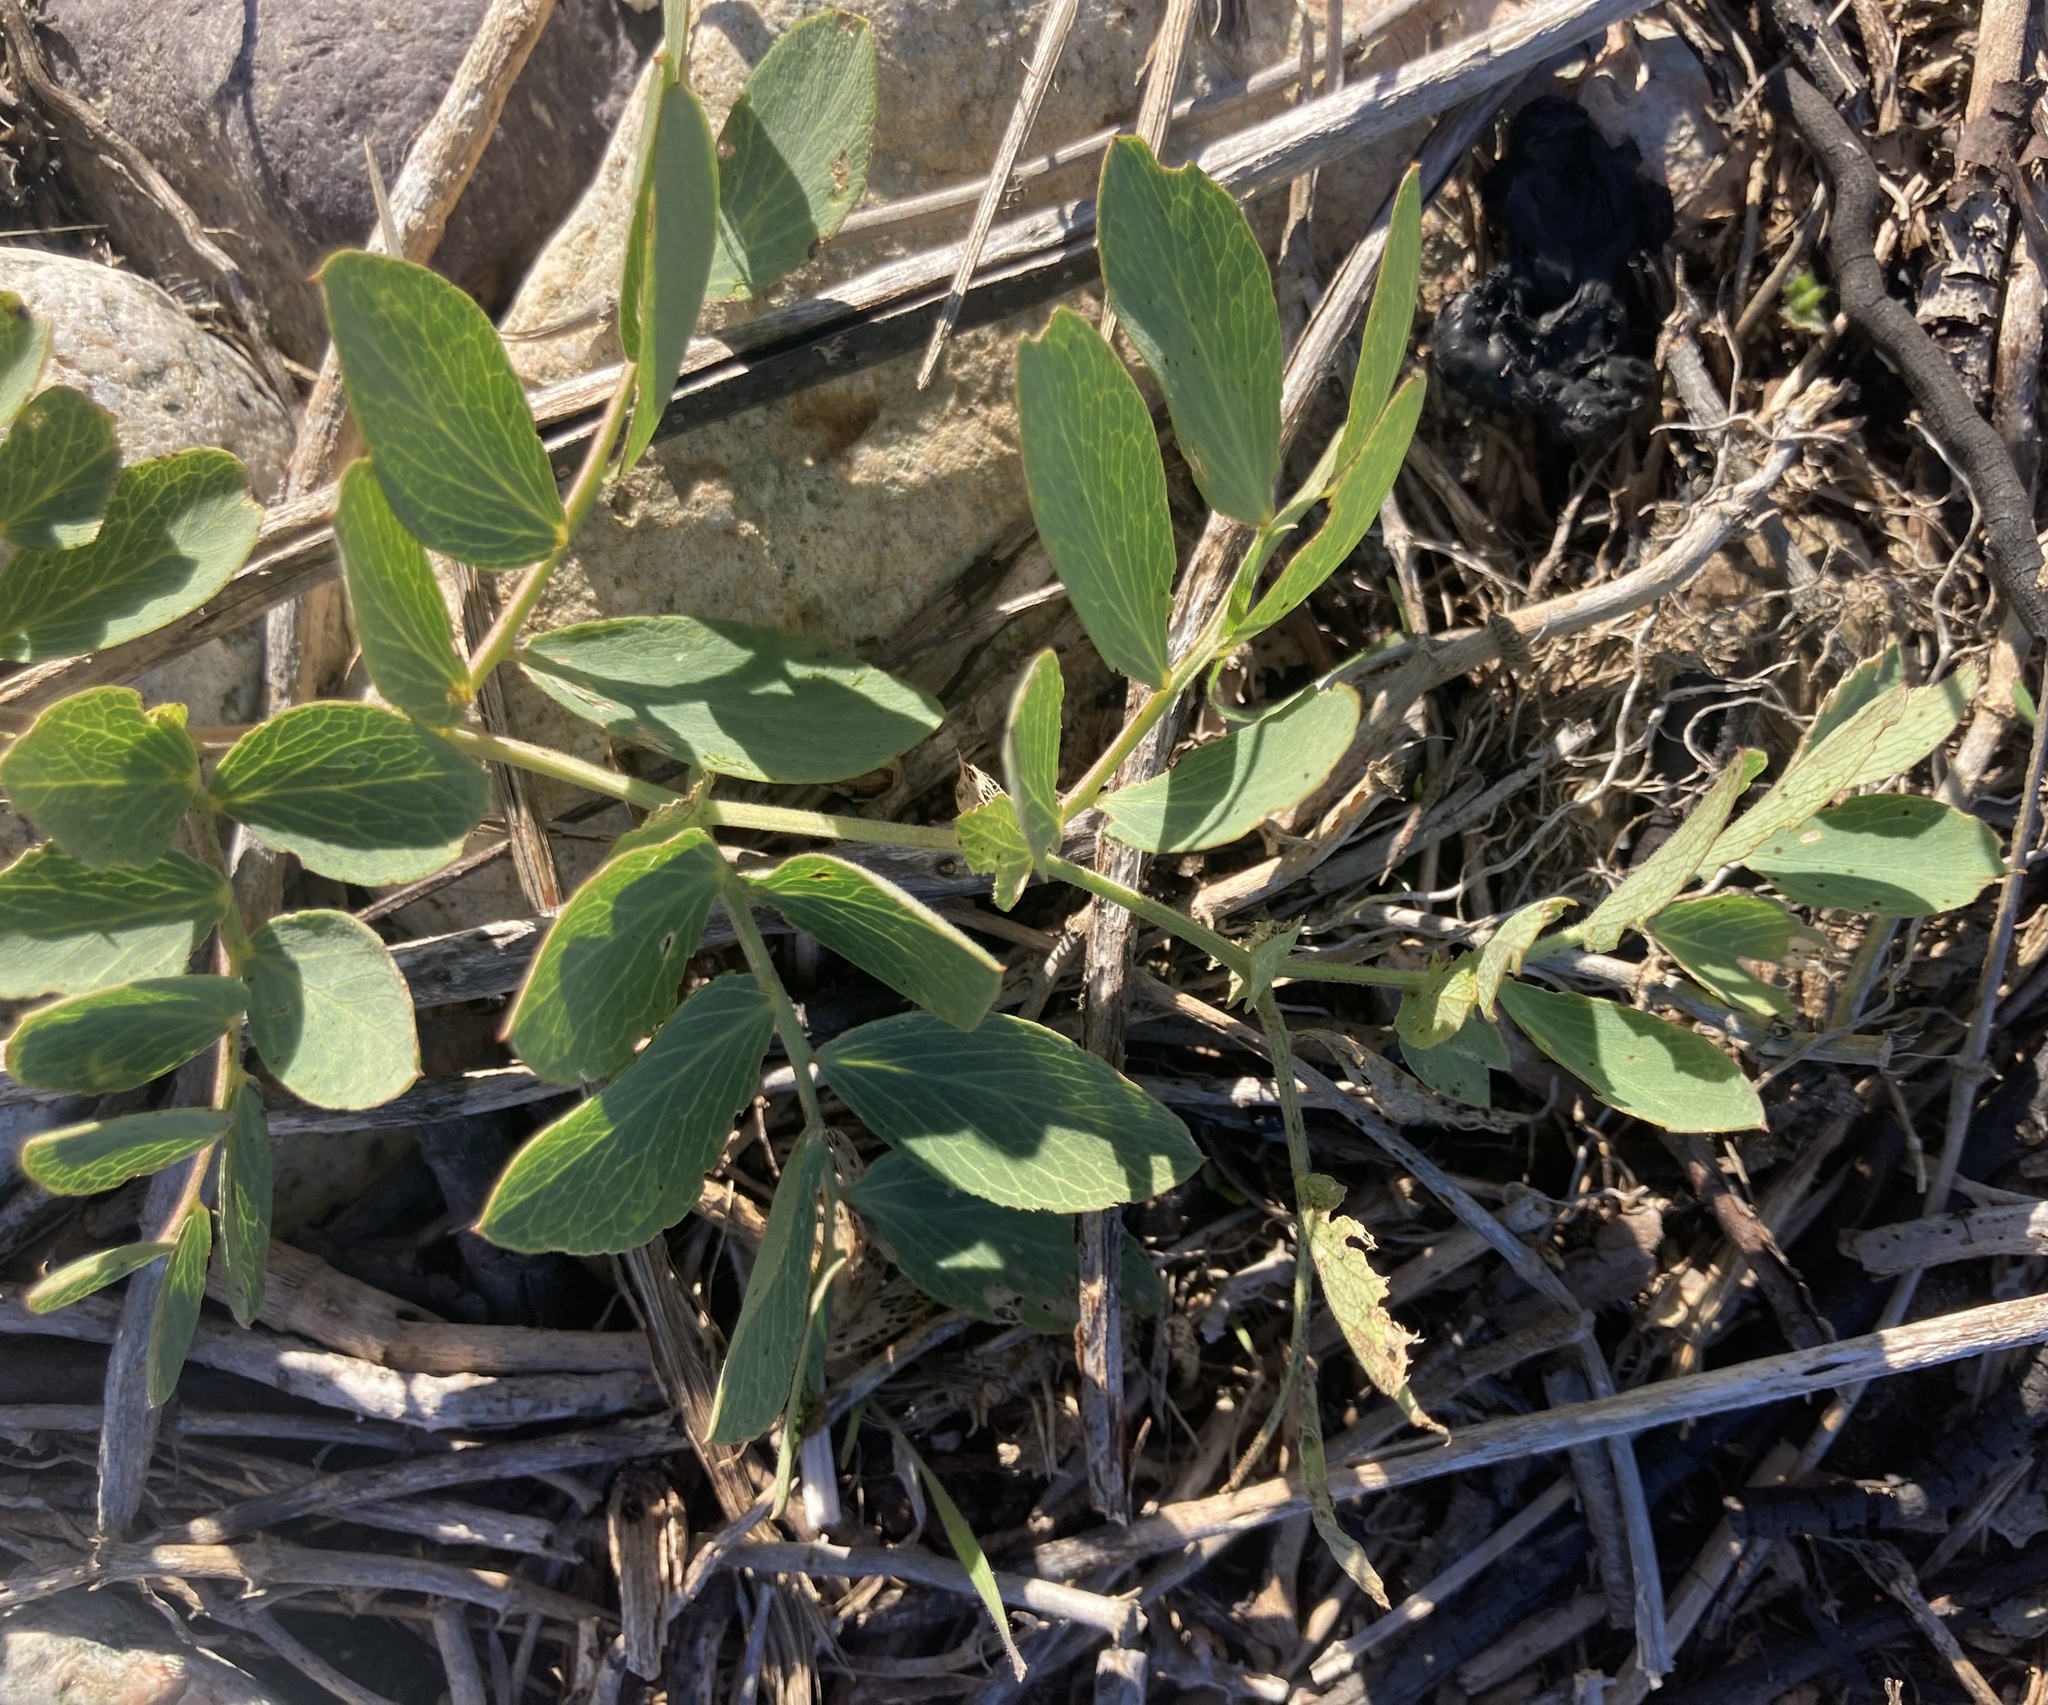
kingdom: Plantae
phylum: Tracheophyta
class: Magnoliopsida
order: Fabales
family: Fabaceae
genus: Lathyrus
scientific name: Lathyrus japonicus
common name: Sea pea
